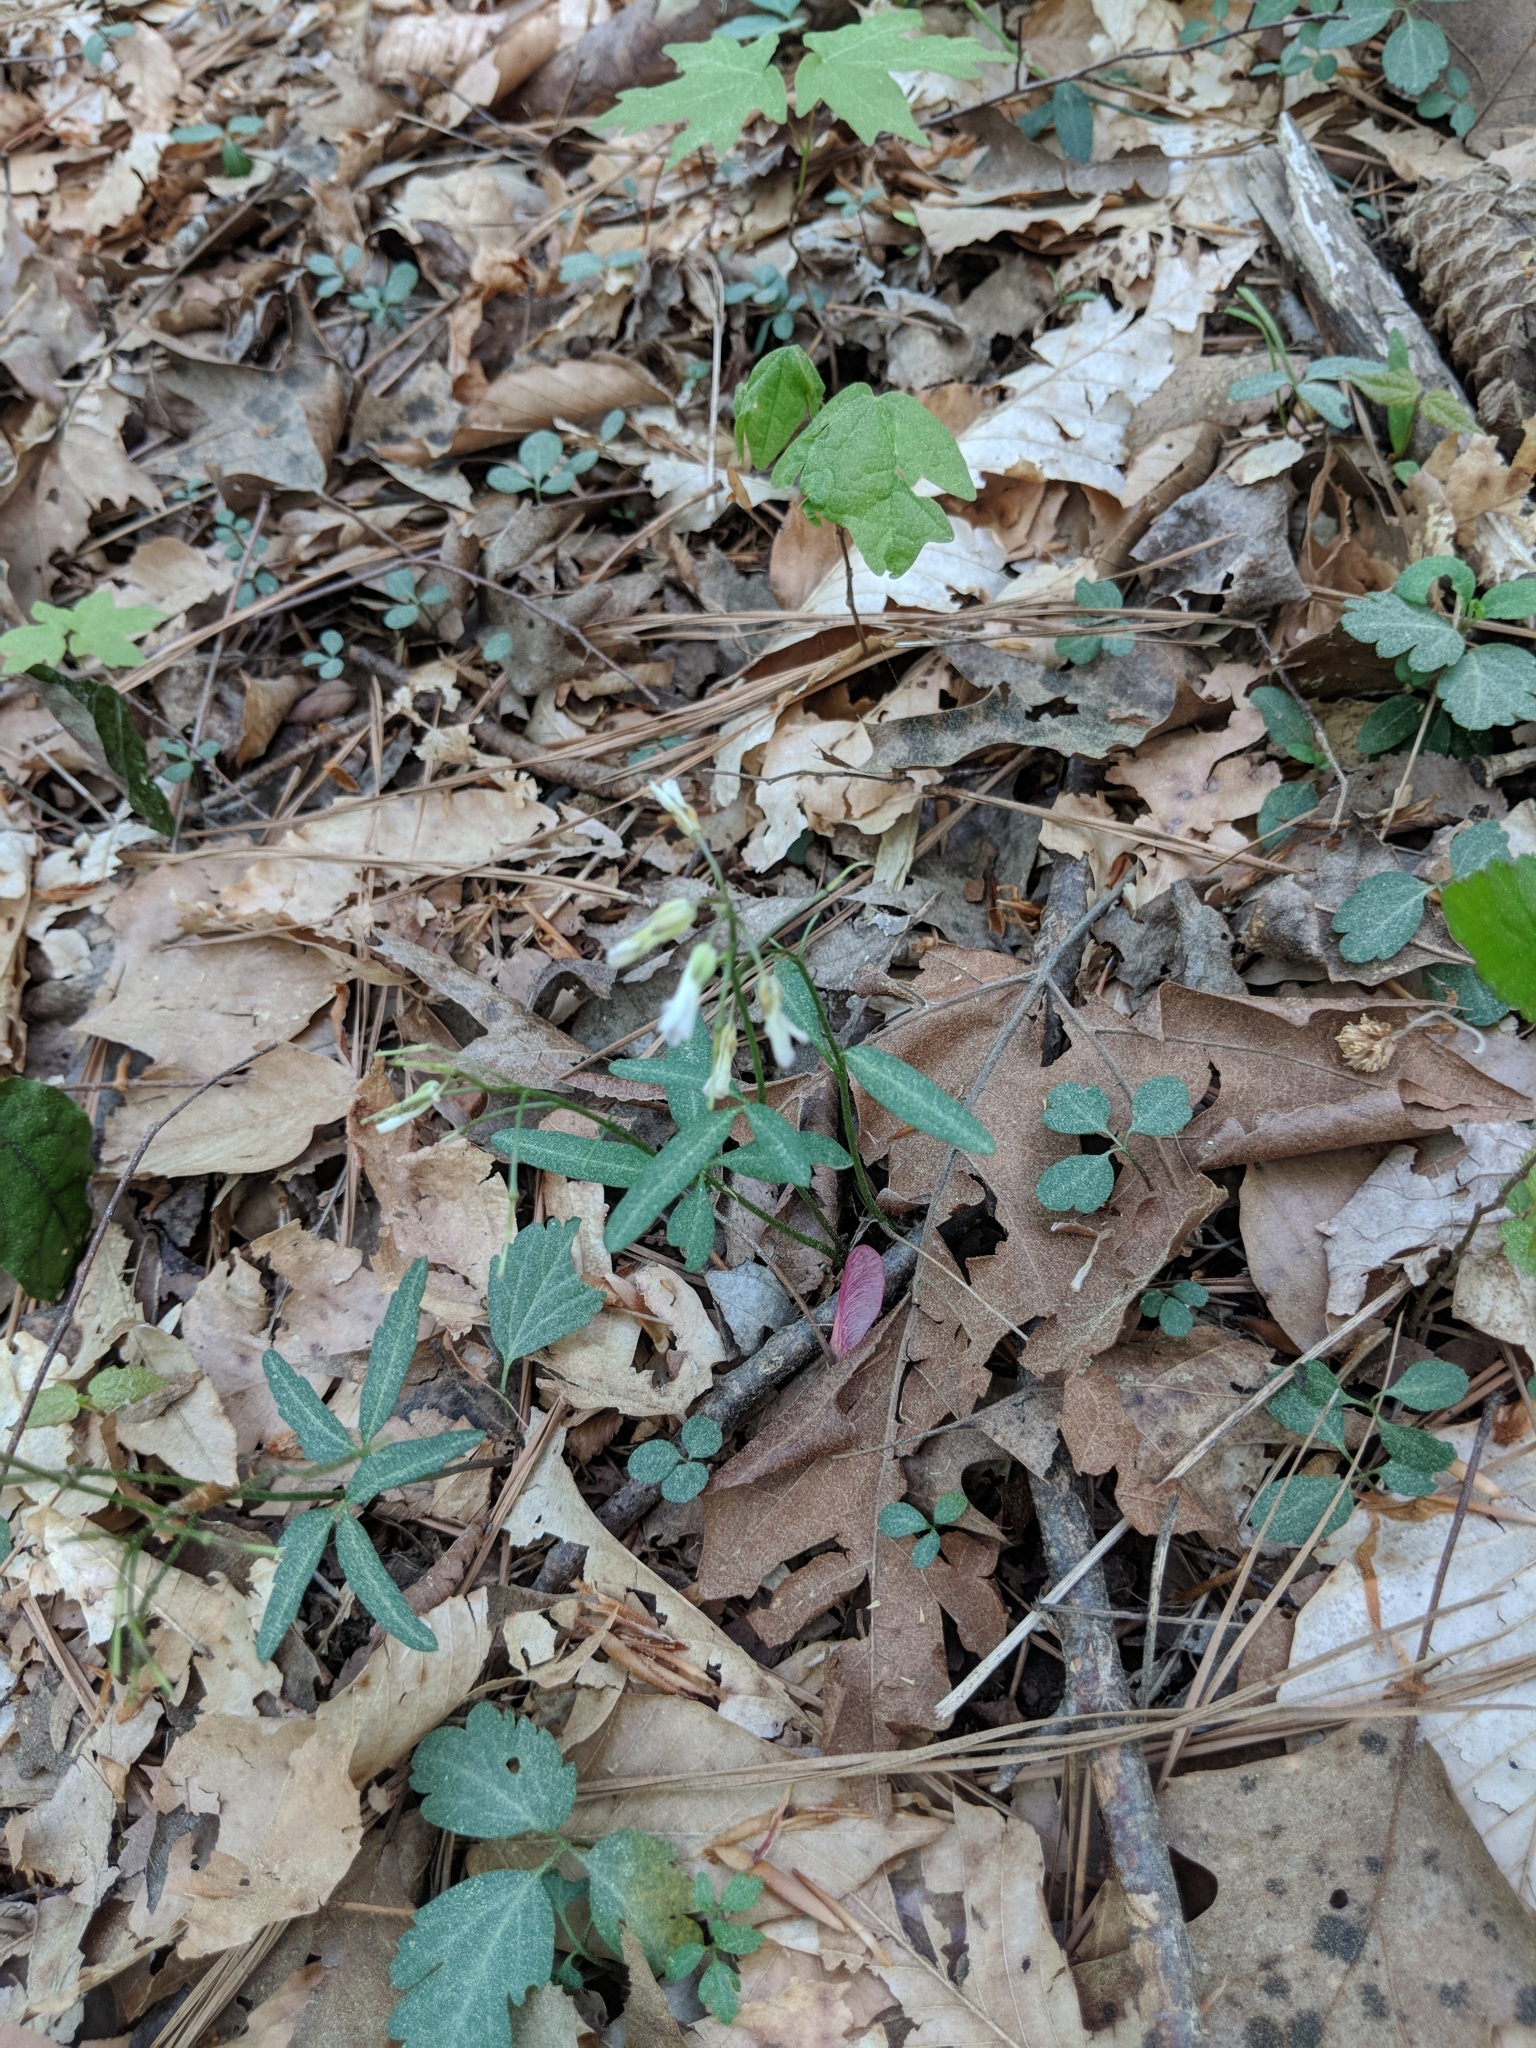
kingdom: Plantae
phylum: Tracheophyta
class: Magnoliopsida
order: Brassicales
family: Brassicaceae
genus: Cardamine
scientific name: Cardamine concatenata
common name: Cut-leaf toothcup
